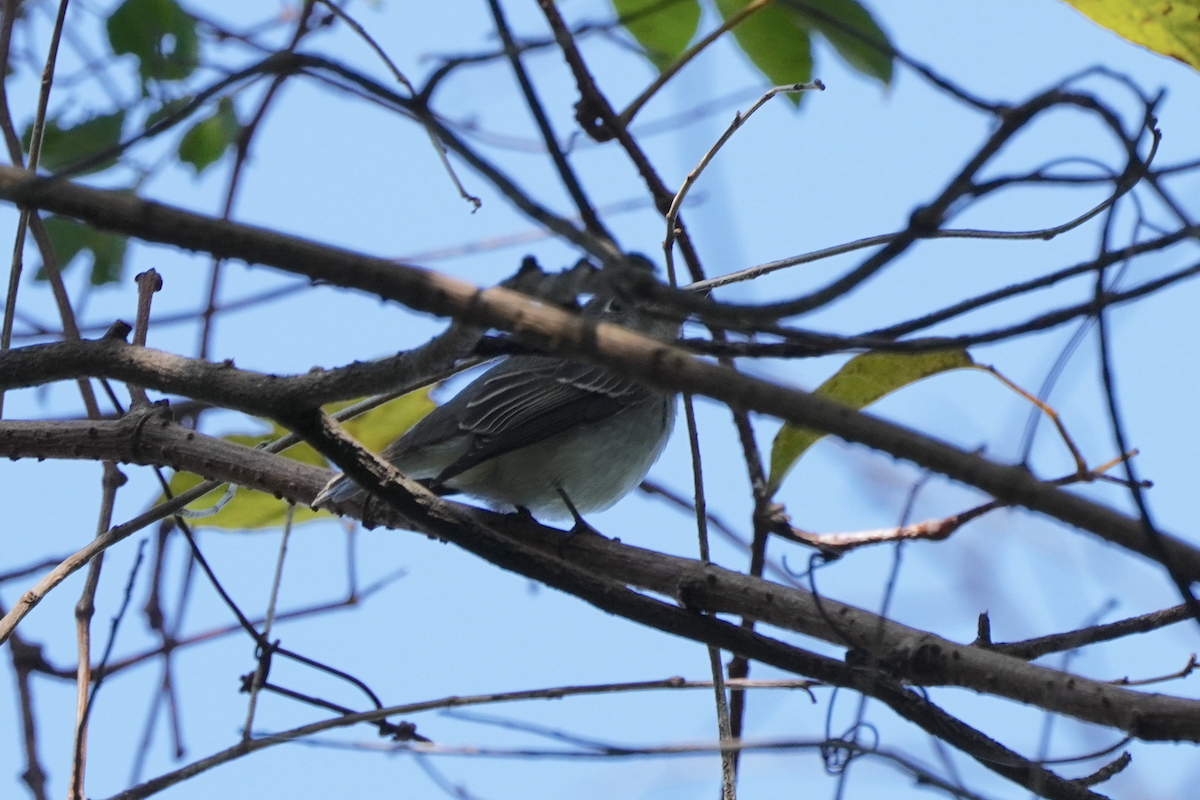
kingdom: Animalia
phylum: Chordata
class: Aves
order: Passeriformes
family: Muscicapidae
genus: Muscicapa
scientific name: Muscicapa latirostris
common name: Asian brown flycatcher
